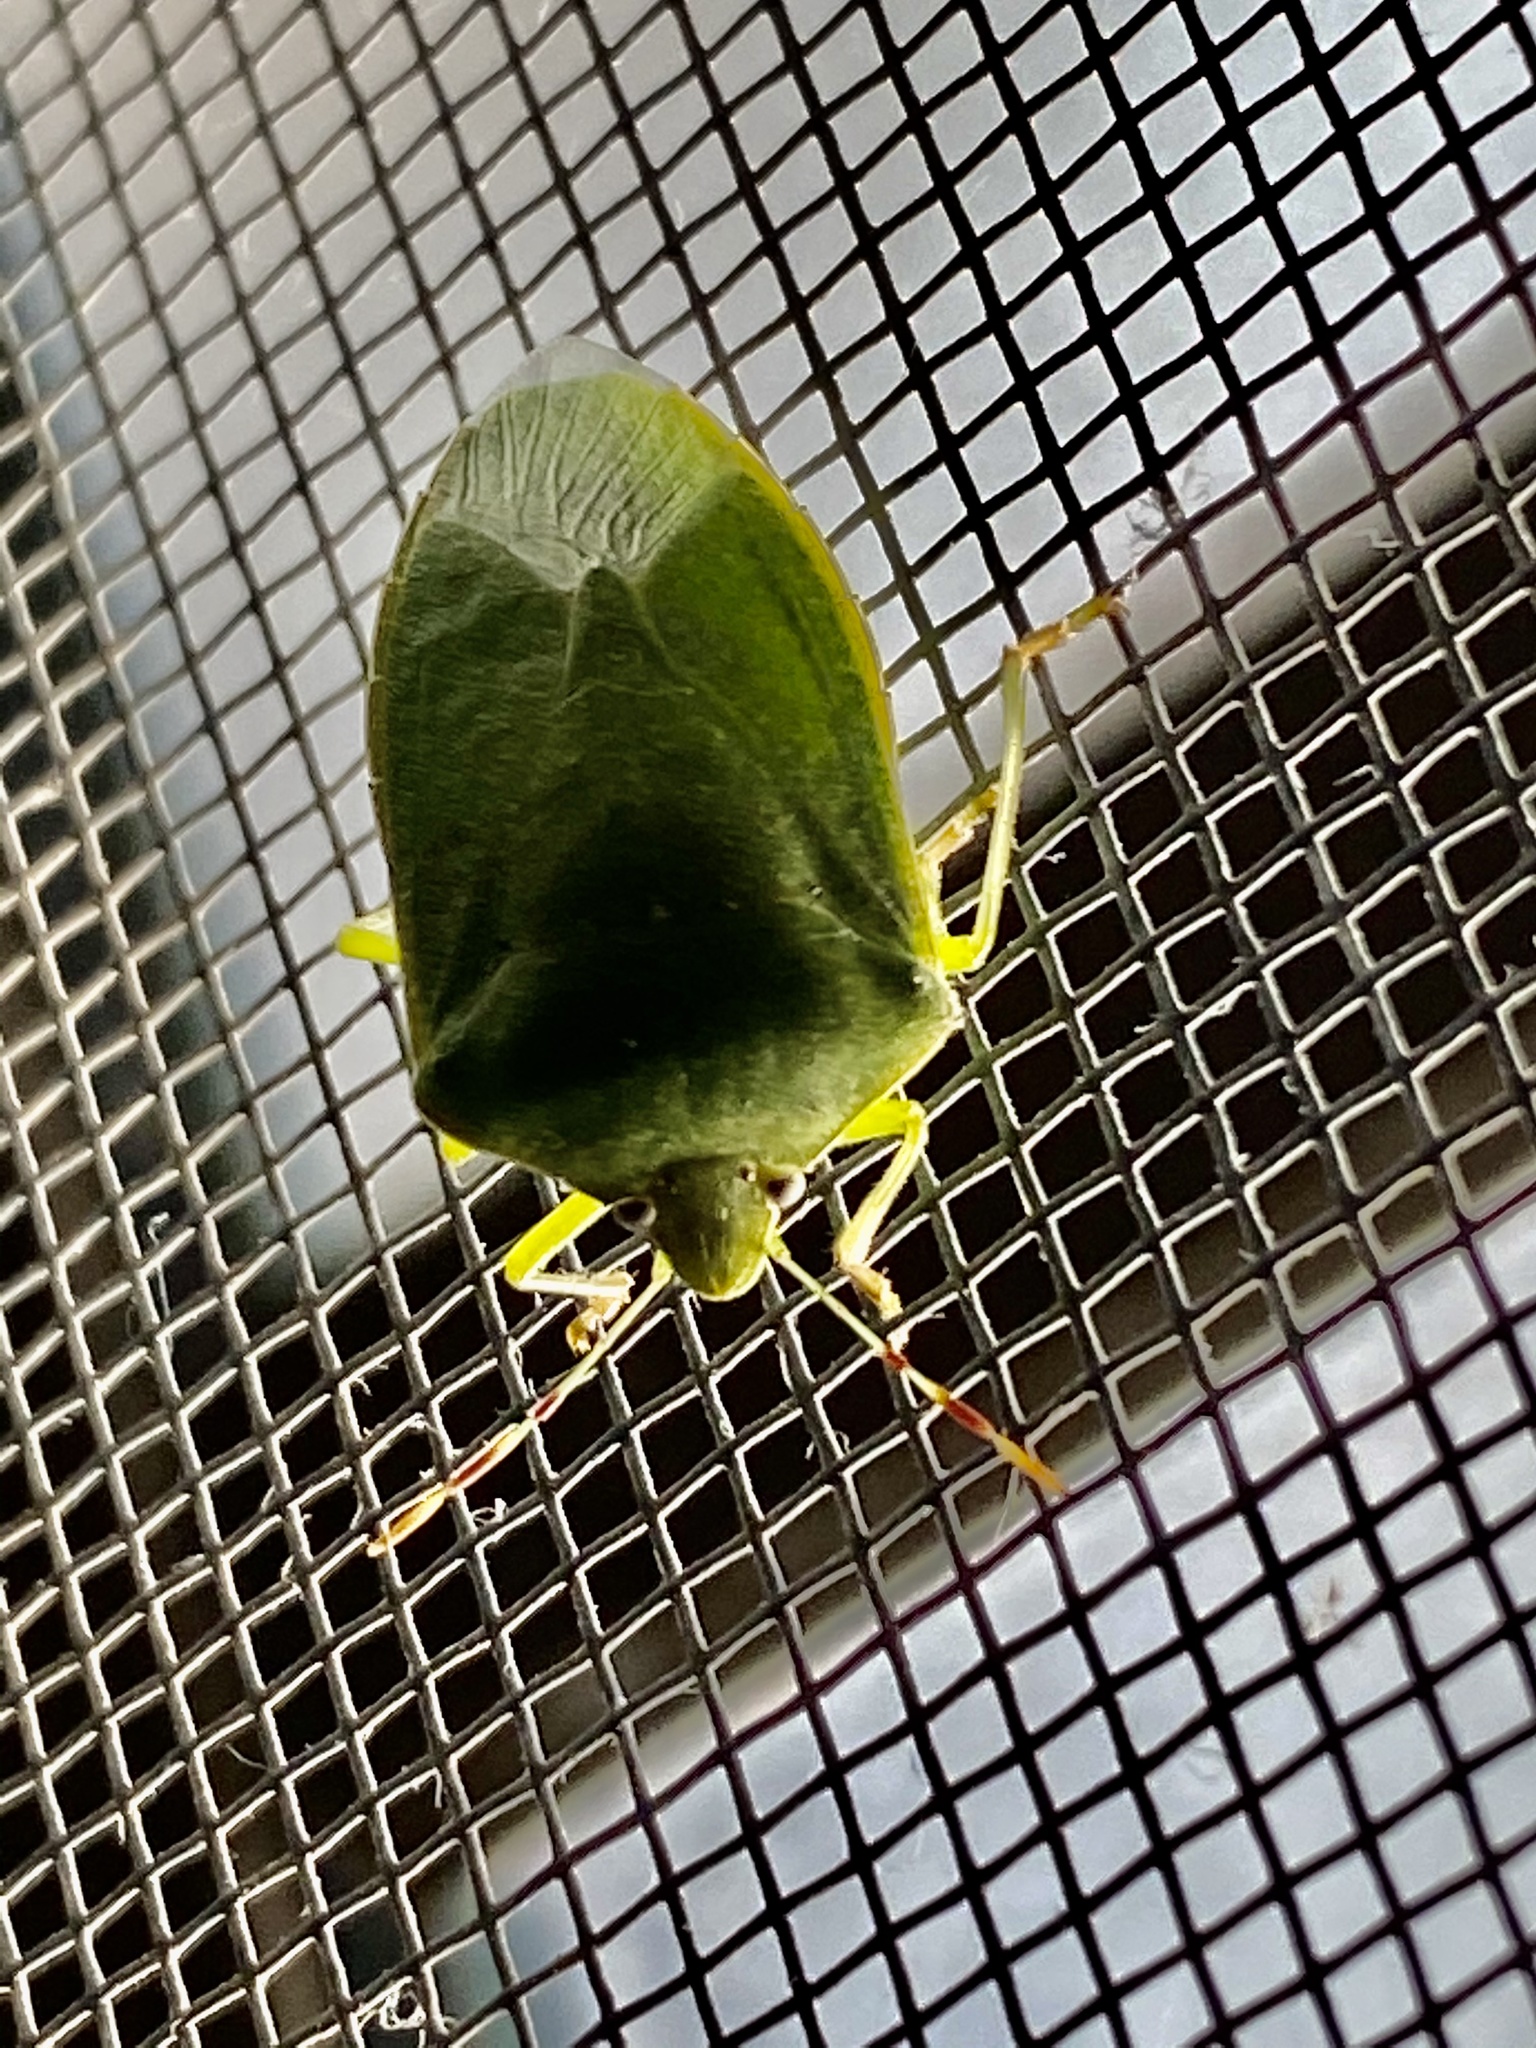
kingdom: Animalia
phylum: Arthropoda
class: Insecta
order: Hemiptera
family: Pentatomidae
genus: Nezara
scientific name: Nezara viridula
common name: Southern green stink bug
